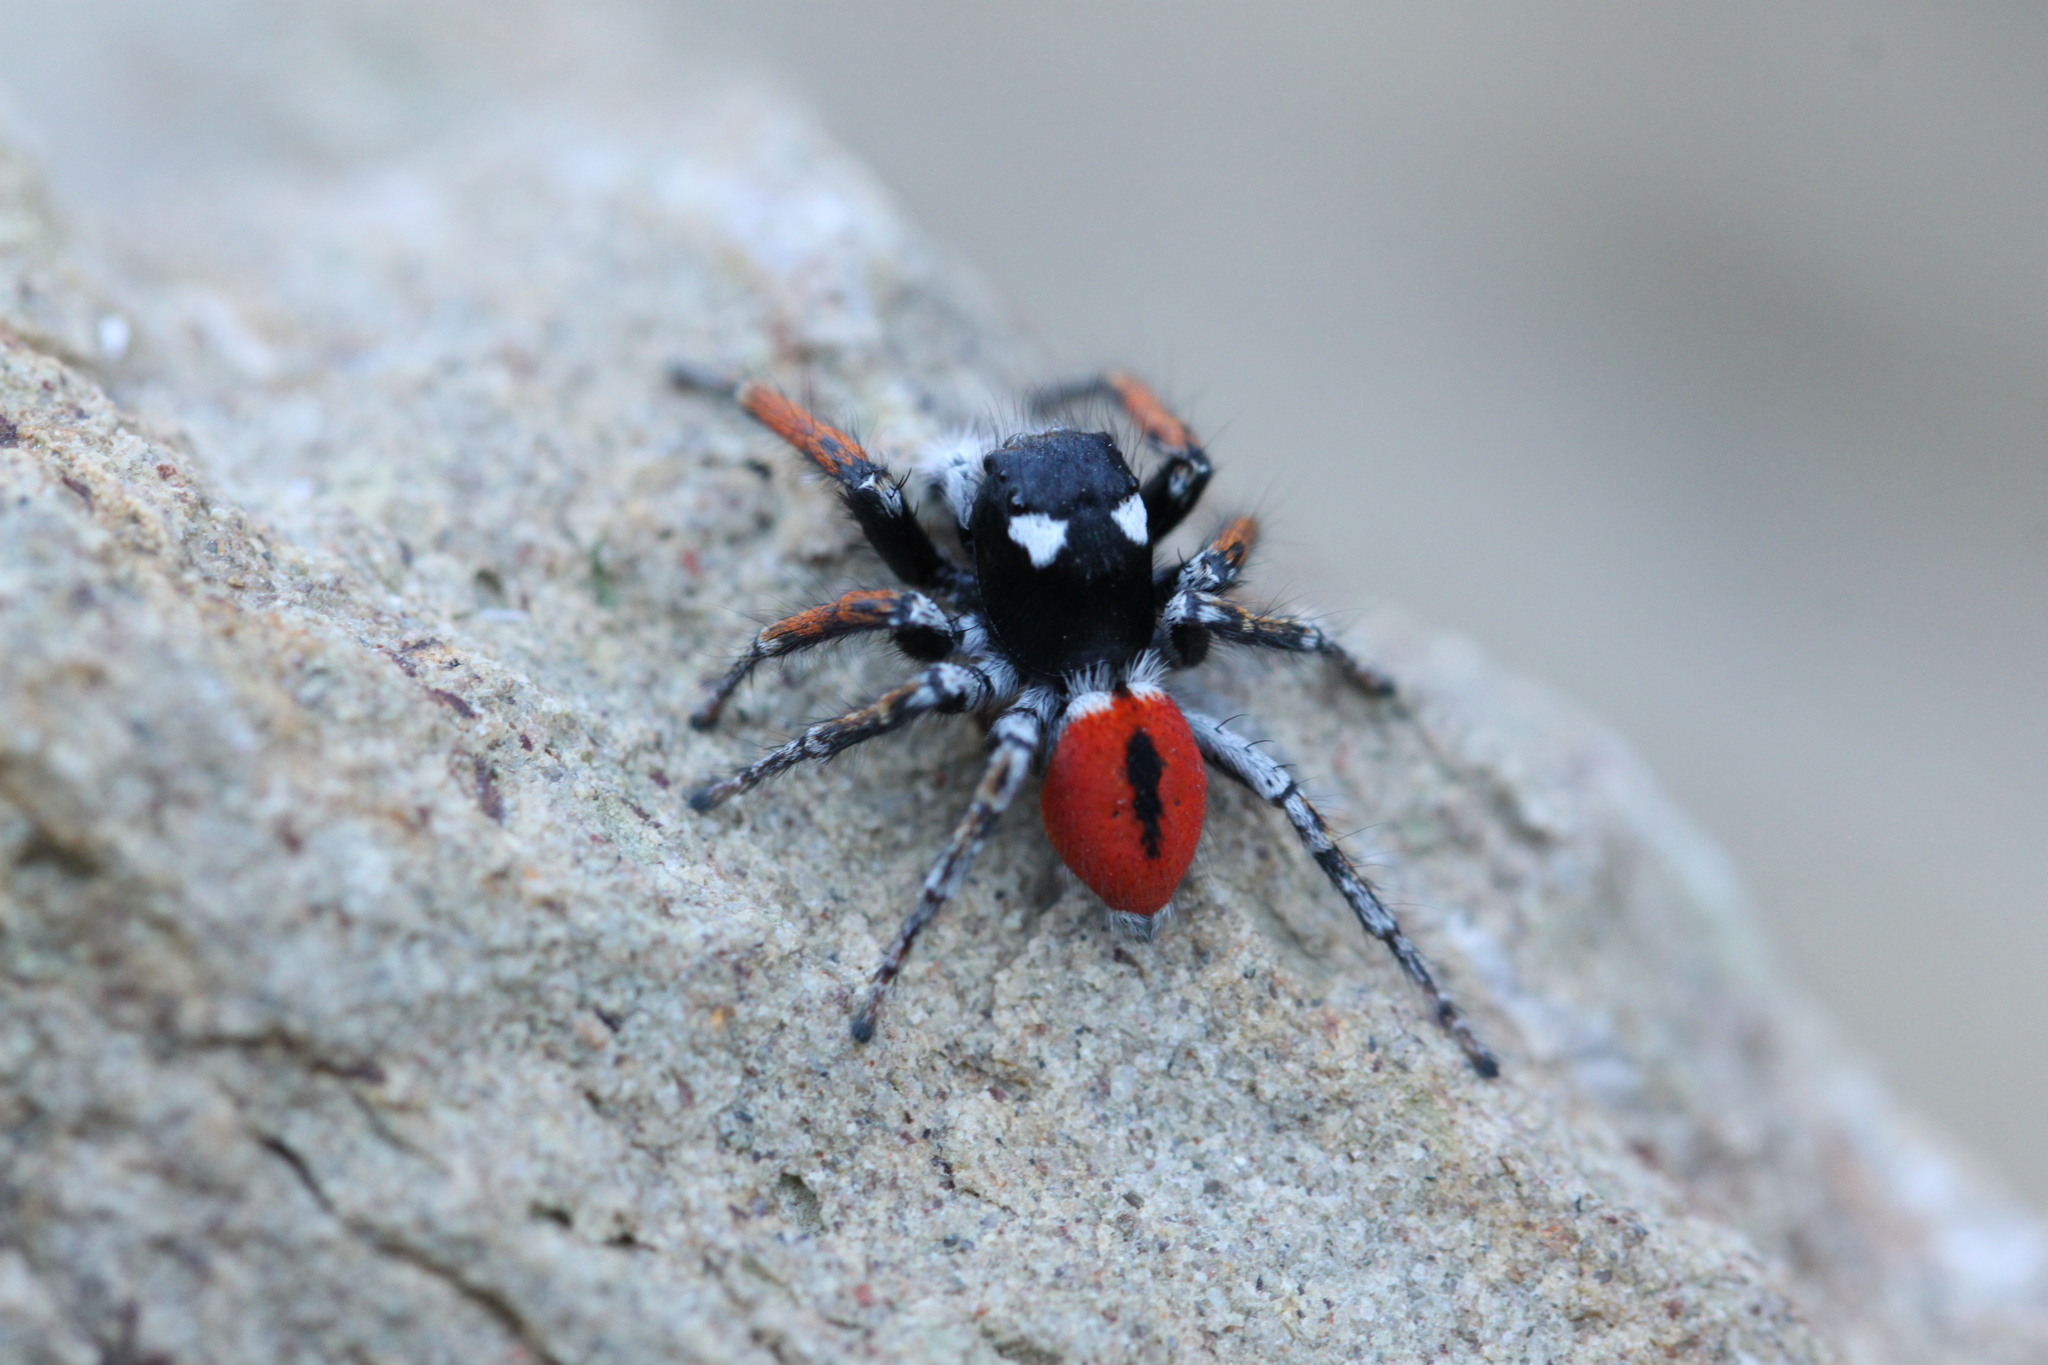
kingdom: Animalia
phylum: Arthropoda
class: Arachnida
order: Araneae
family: Salticidae
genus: Philaeus
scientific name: Philaeus chrysops
